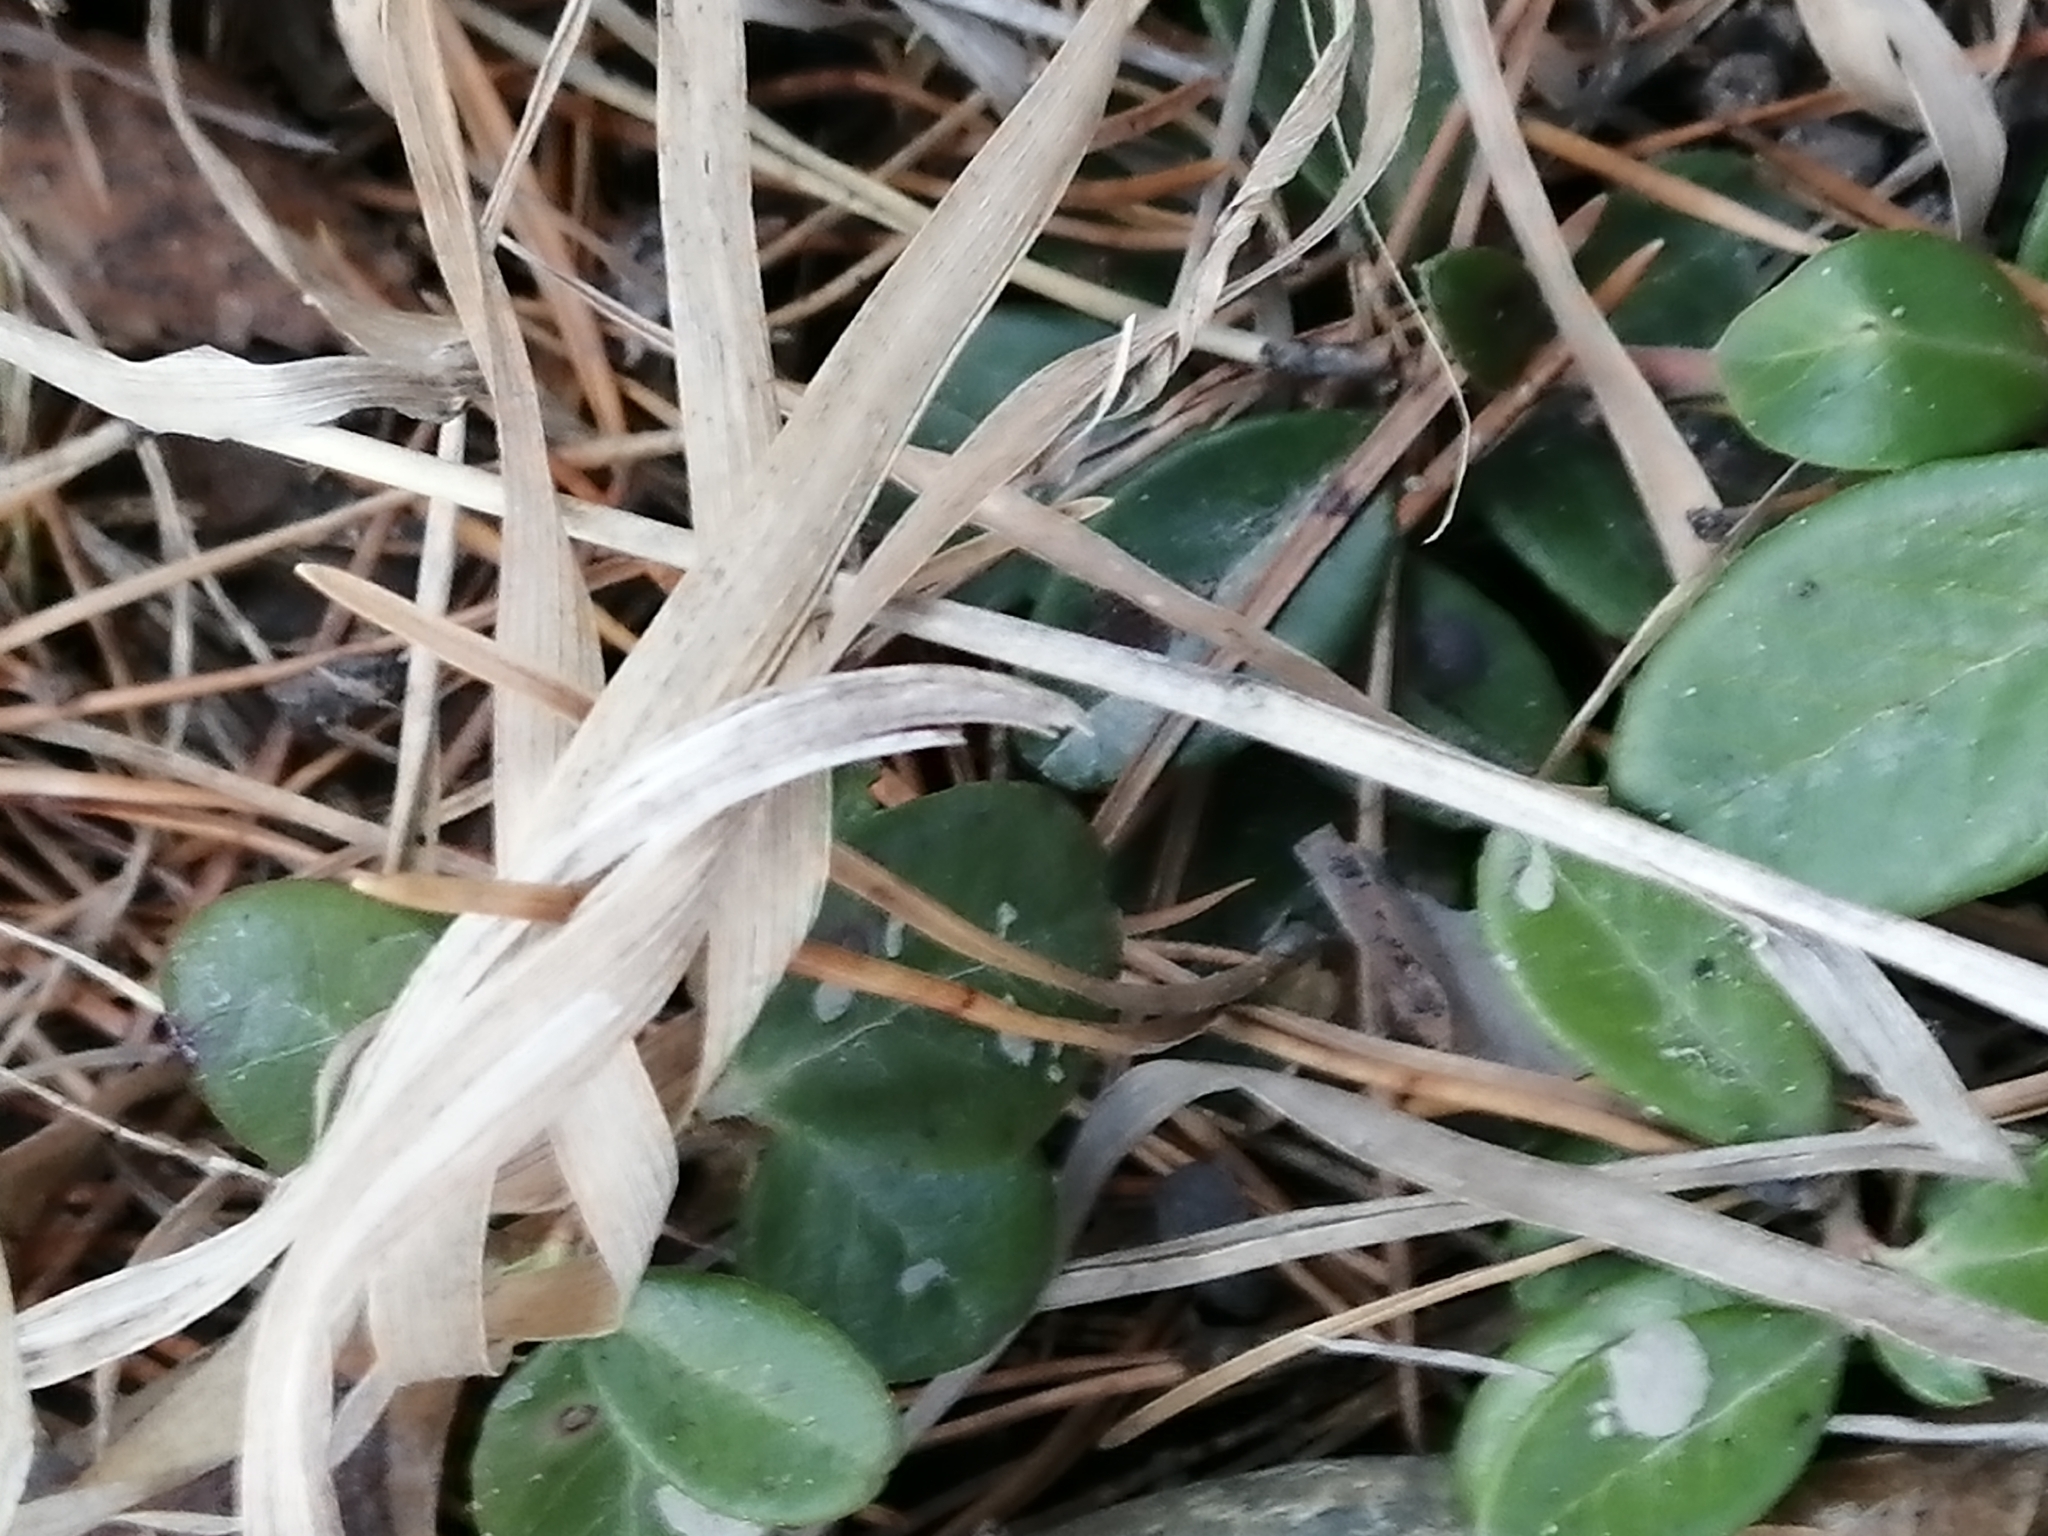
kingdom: Plantae
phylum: Tracheophyta
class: Magnoliopsida
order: Ericales
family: Ericaceae
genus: Vaccinium
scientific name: Vaccinium vitis-idaea
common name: Cowberry
